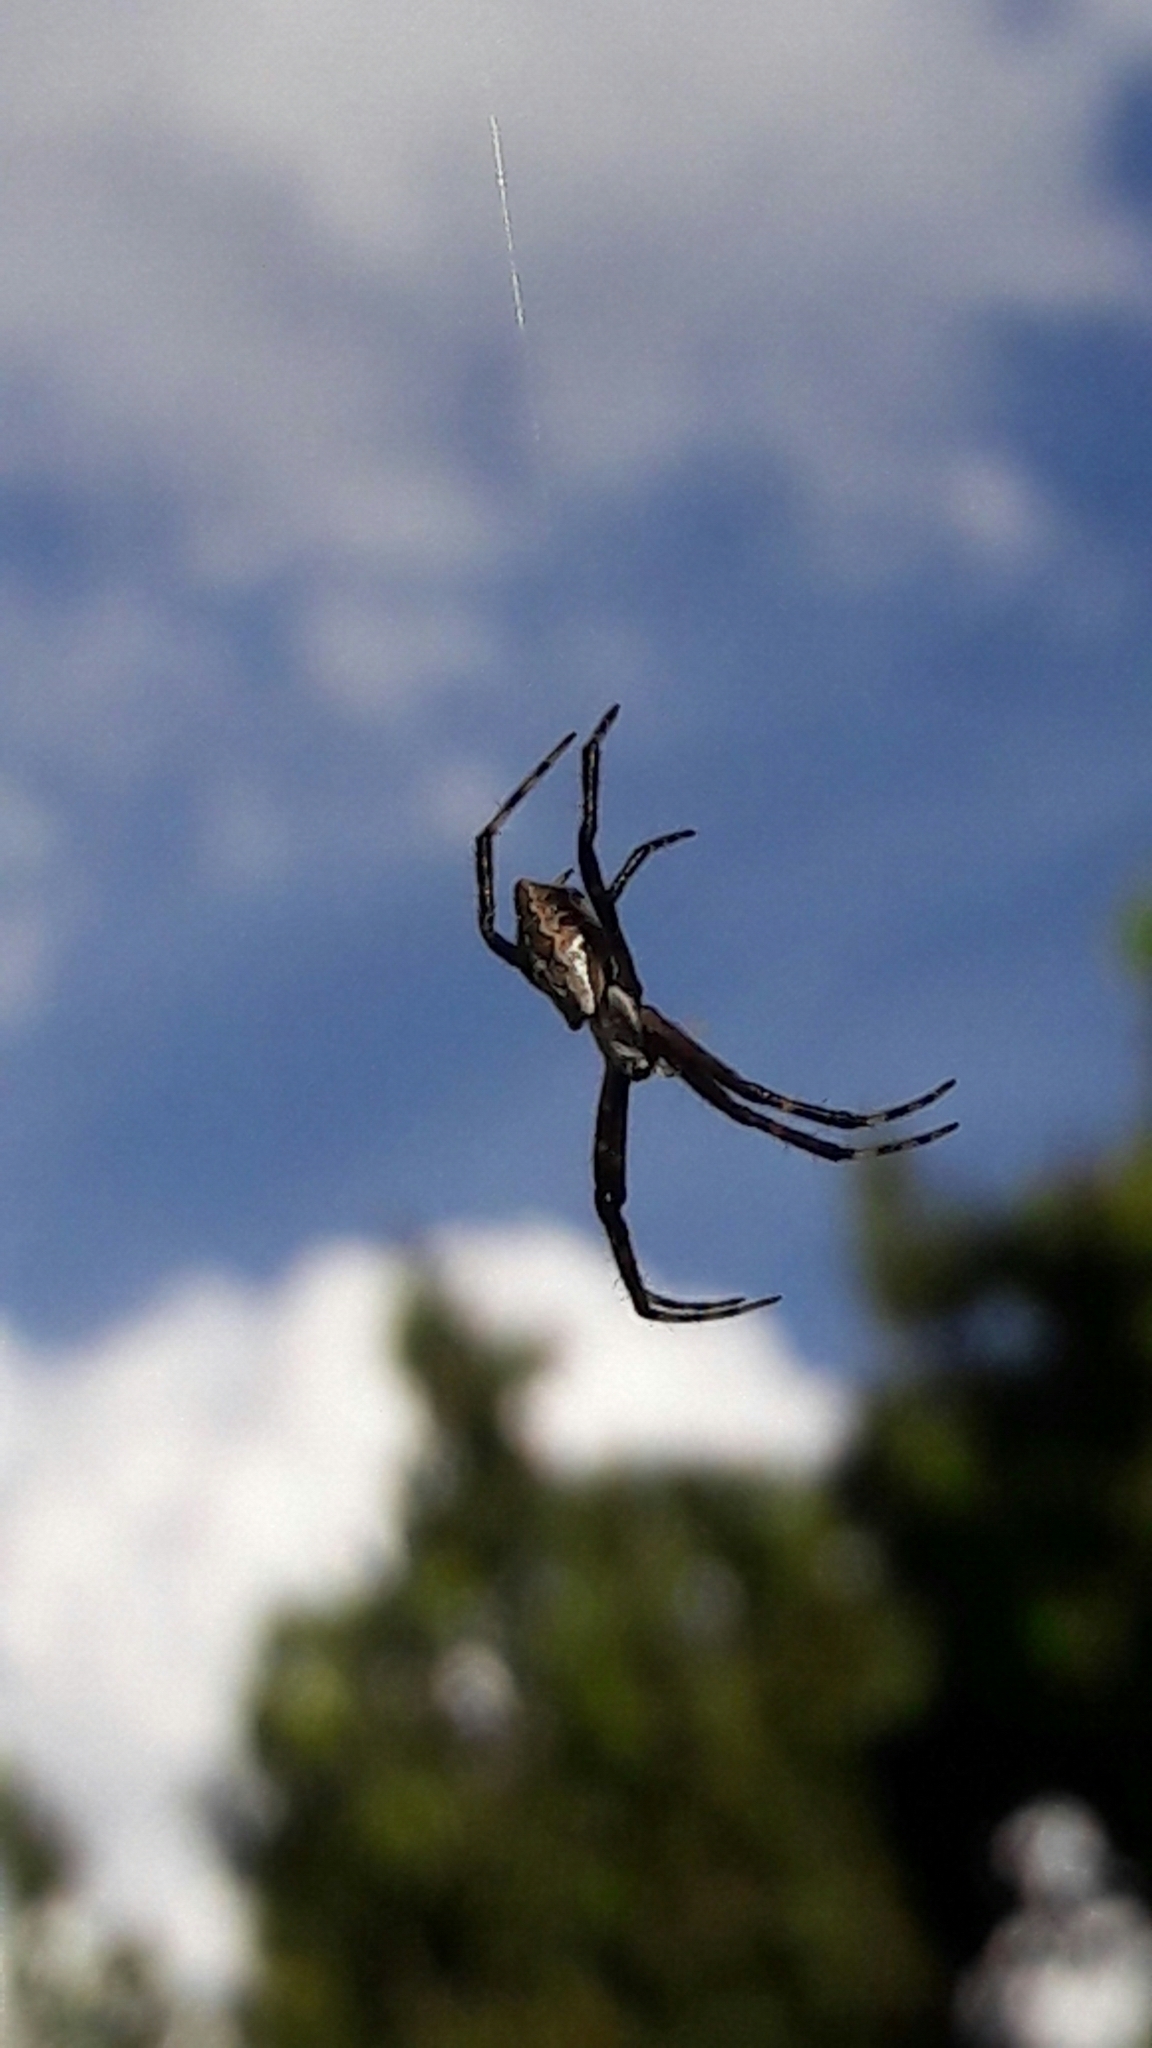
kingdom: Animalia
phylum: Arthropoda
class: Arachnida
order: Araneae
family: Araneidae
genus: Argiope
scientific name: Argiope argentata
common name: Orb weavers
